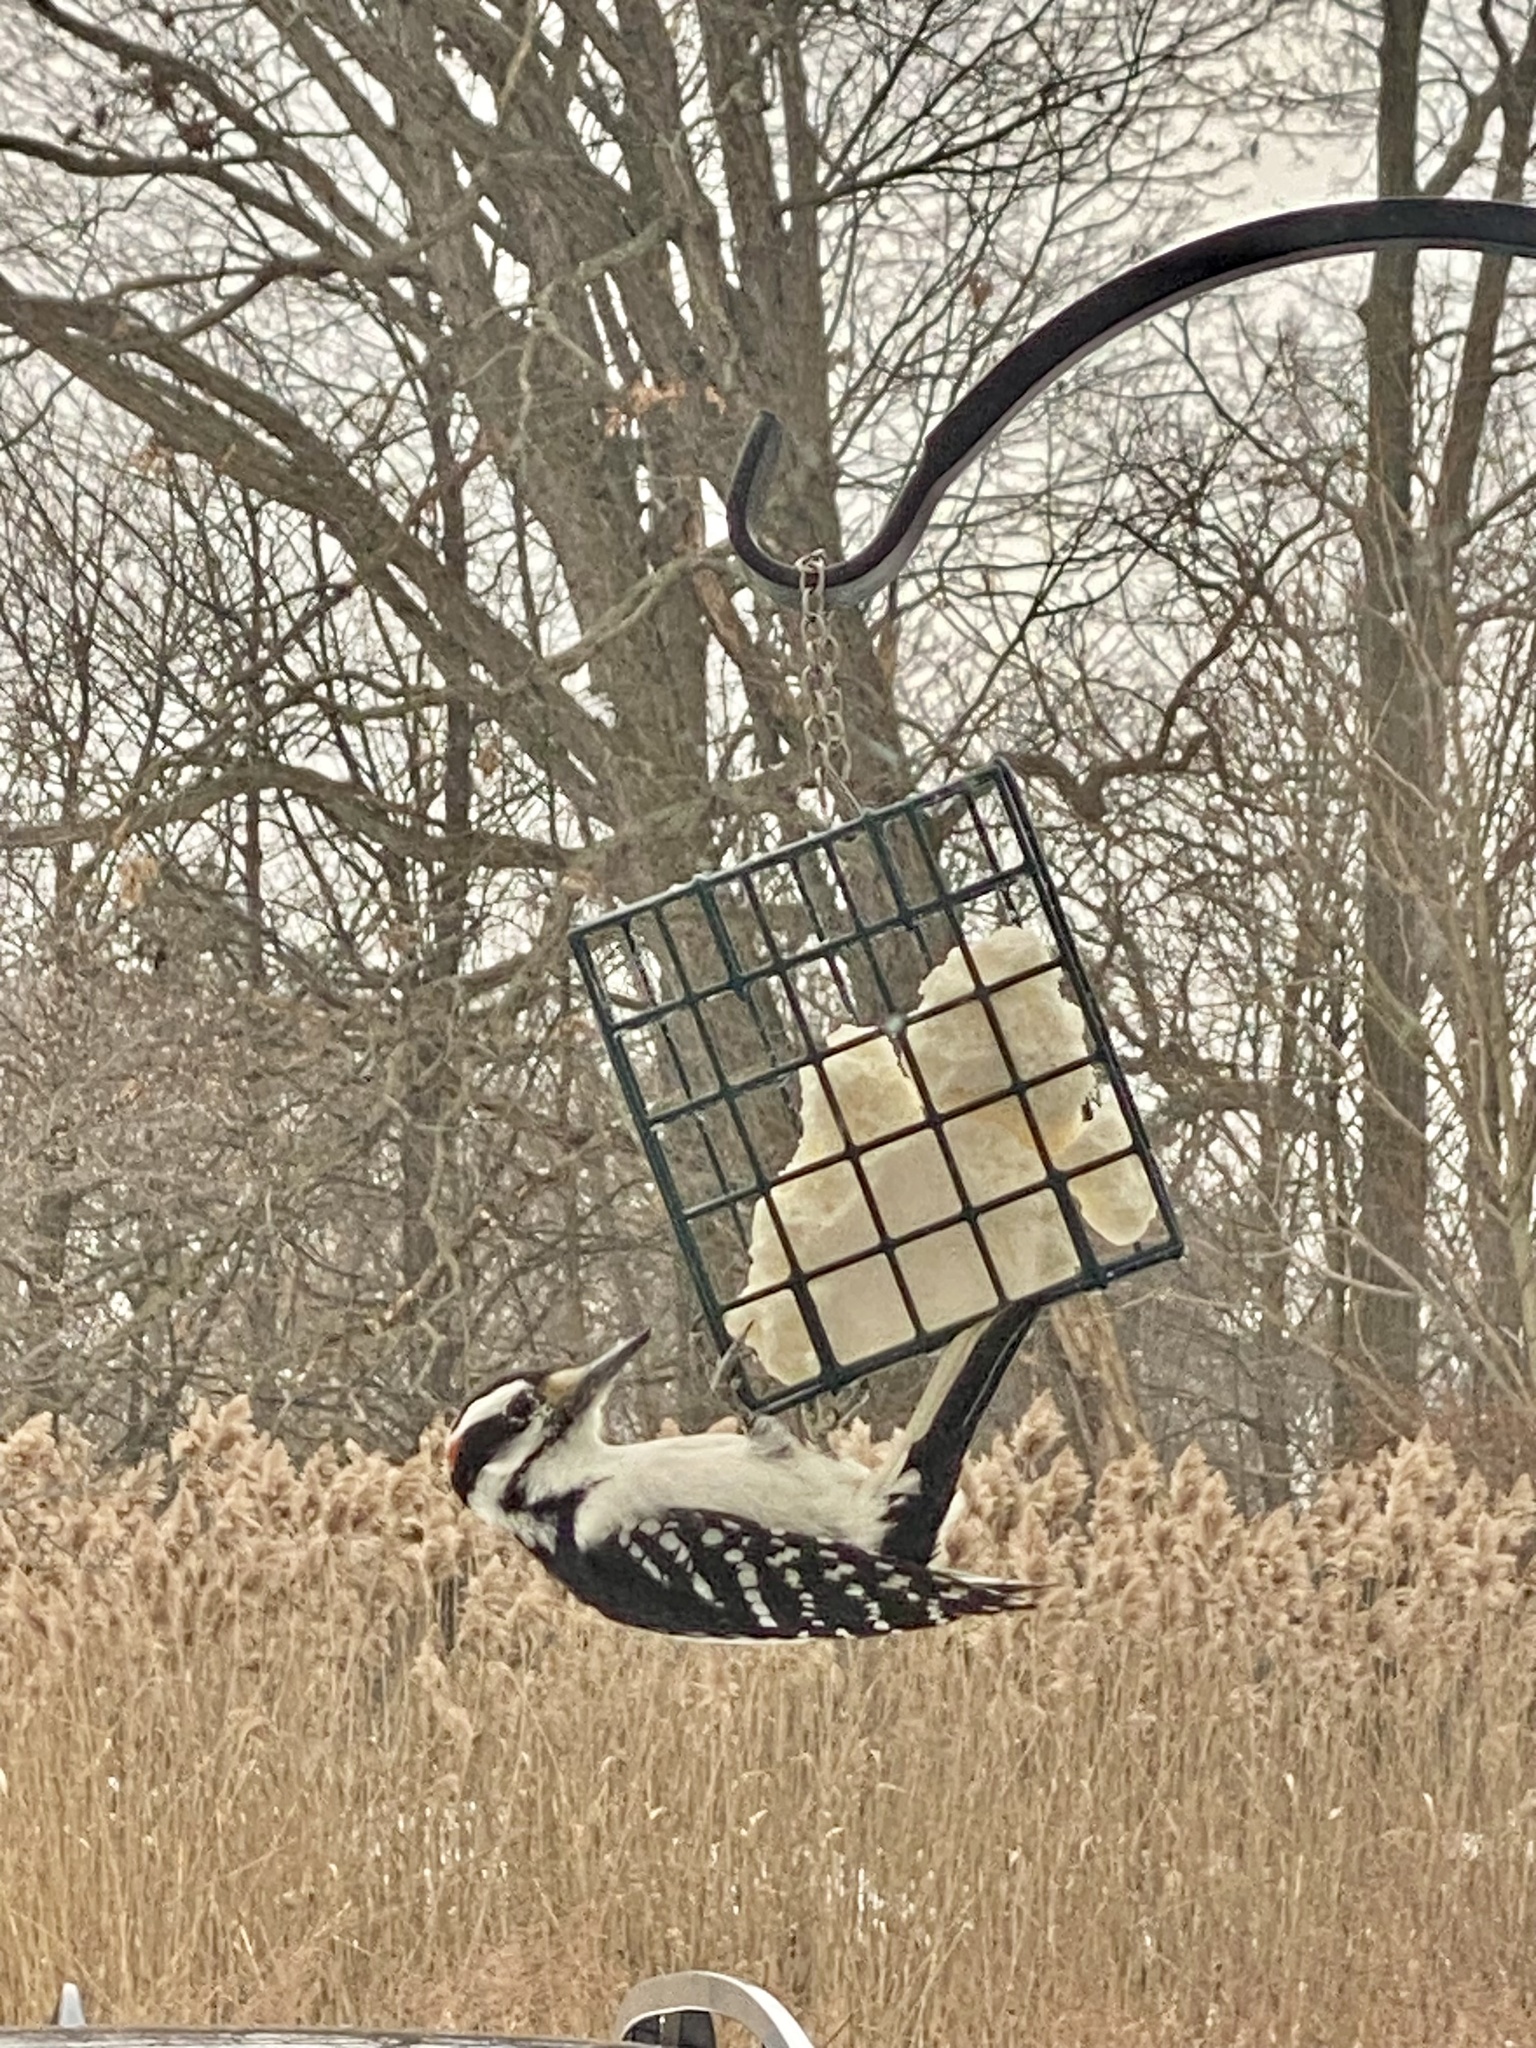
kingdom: Animalia
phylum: Chordata
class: Aves
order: Piciformes
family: Picidae
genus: Leuconotopicus
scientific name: Leuconotopicus villosus
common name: Hairy woodpecker
